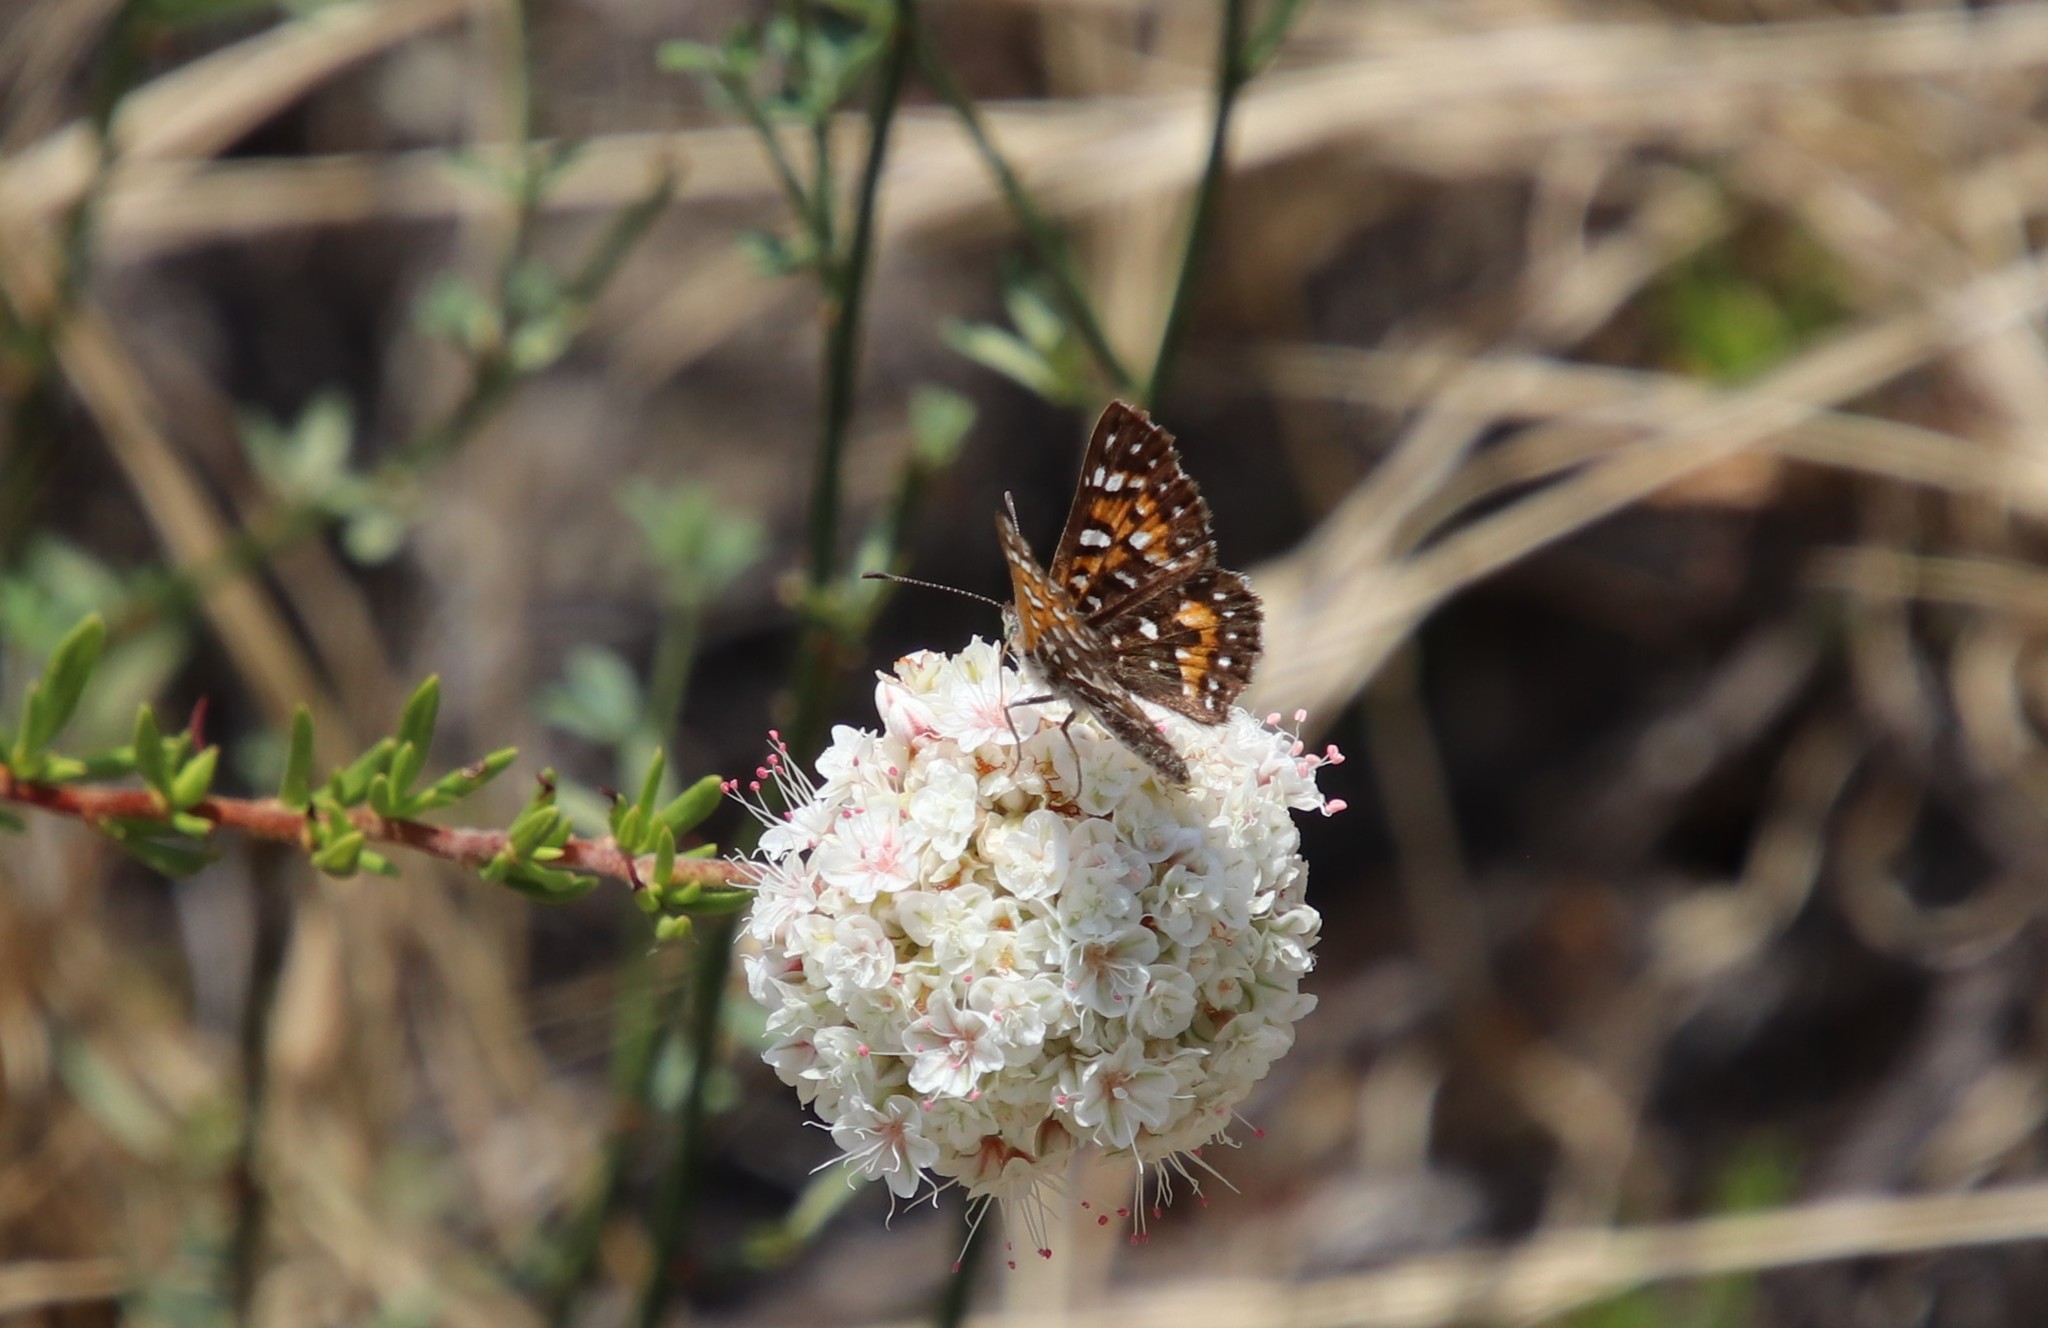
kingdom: Animalia
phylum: Arthropoda
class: Insecta
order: Lepidoptera
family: Riodinidae
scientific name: Riodinidae
